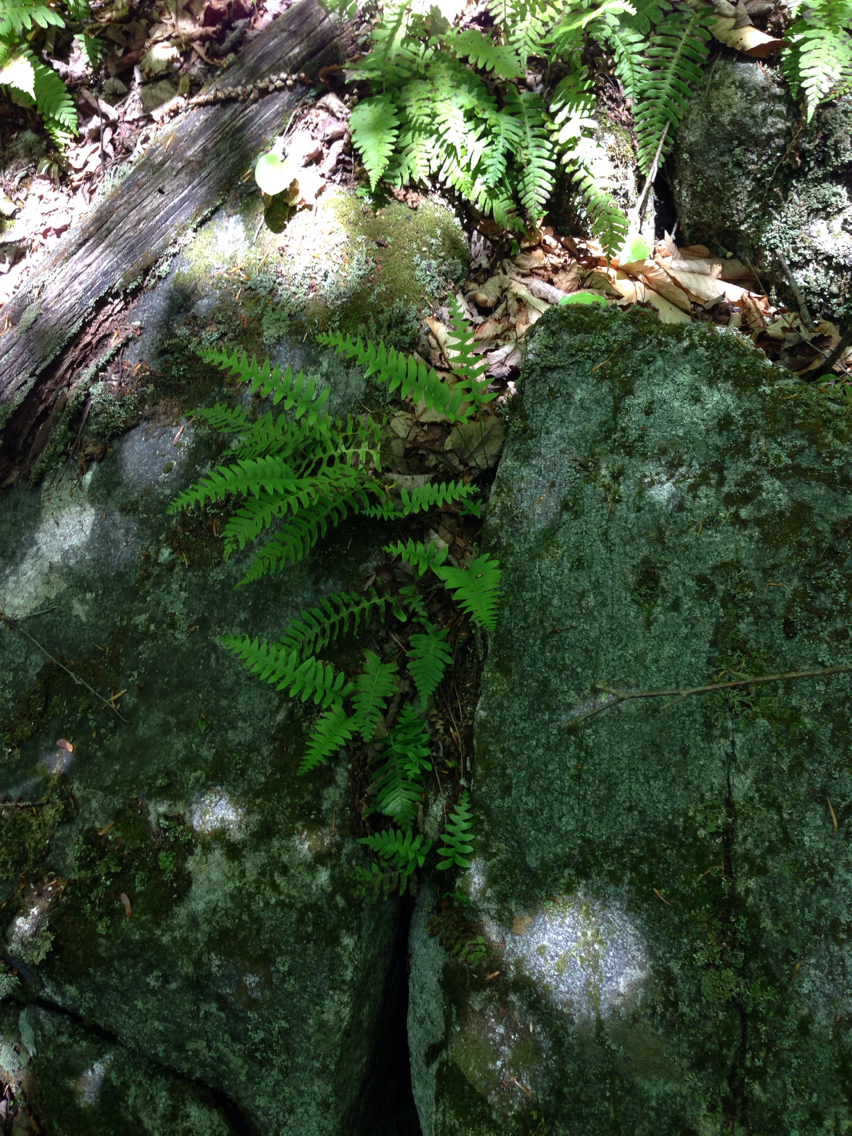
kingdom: Plantae
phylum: Tracheophyta
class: Polypodiopsida
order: Polypodiales
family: Polypodiaceae
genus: Polypodium
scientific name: Polypodium virginianum
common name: American wall fern
